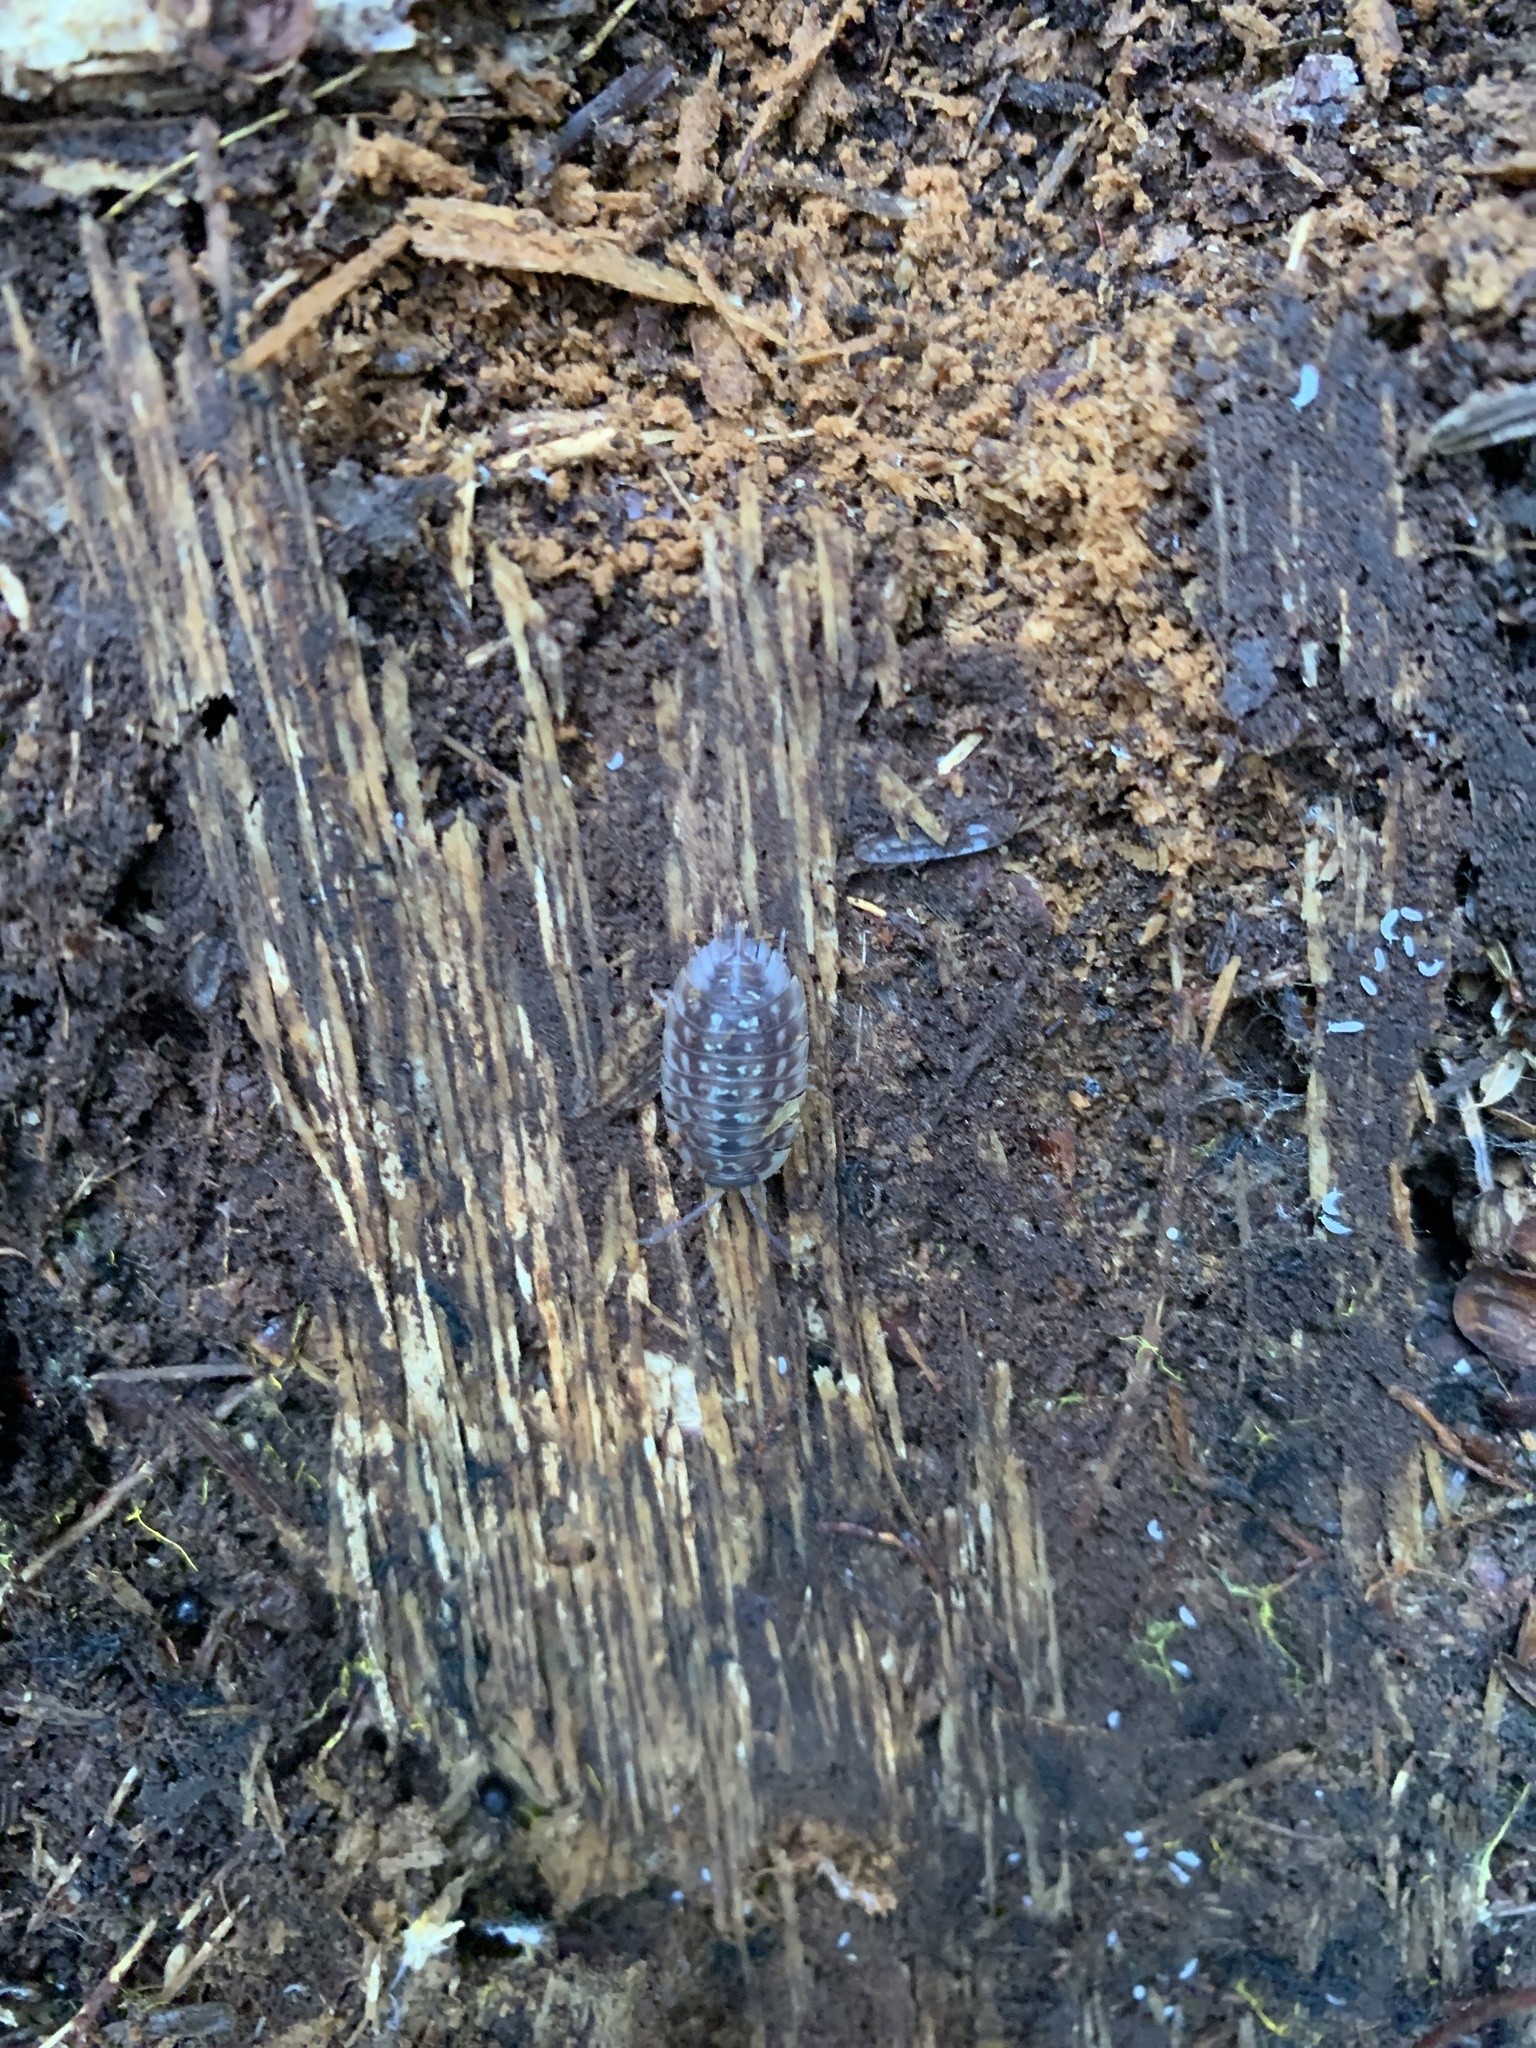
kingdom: Animalia
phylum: Arthropoda
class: Malacostraca
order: Isopoda
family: Oniscidae
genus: Oniscus
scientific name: Oniscus asellus
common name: Common shiny woodlouse
